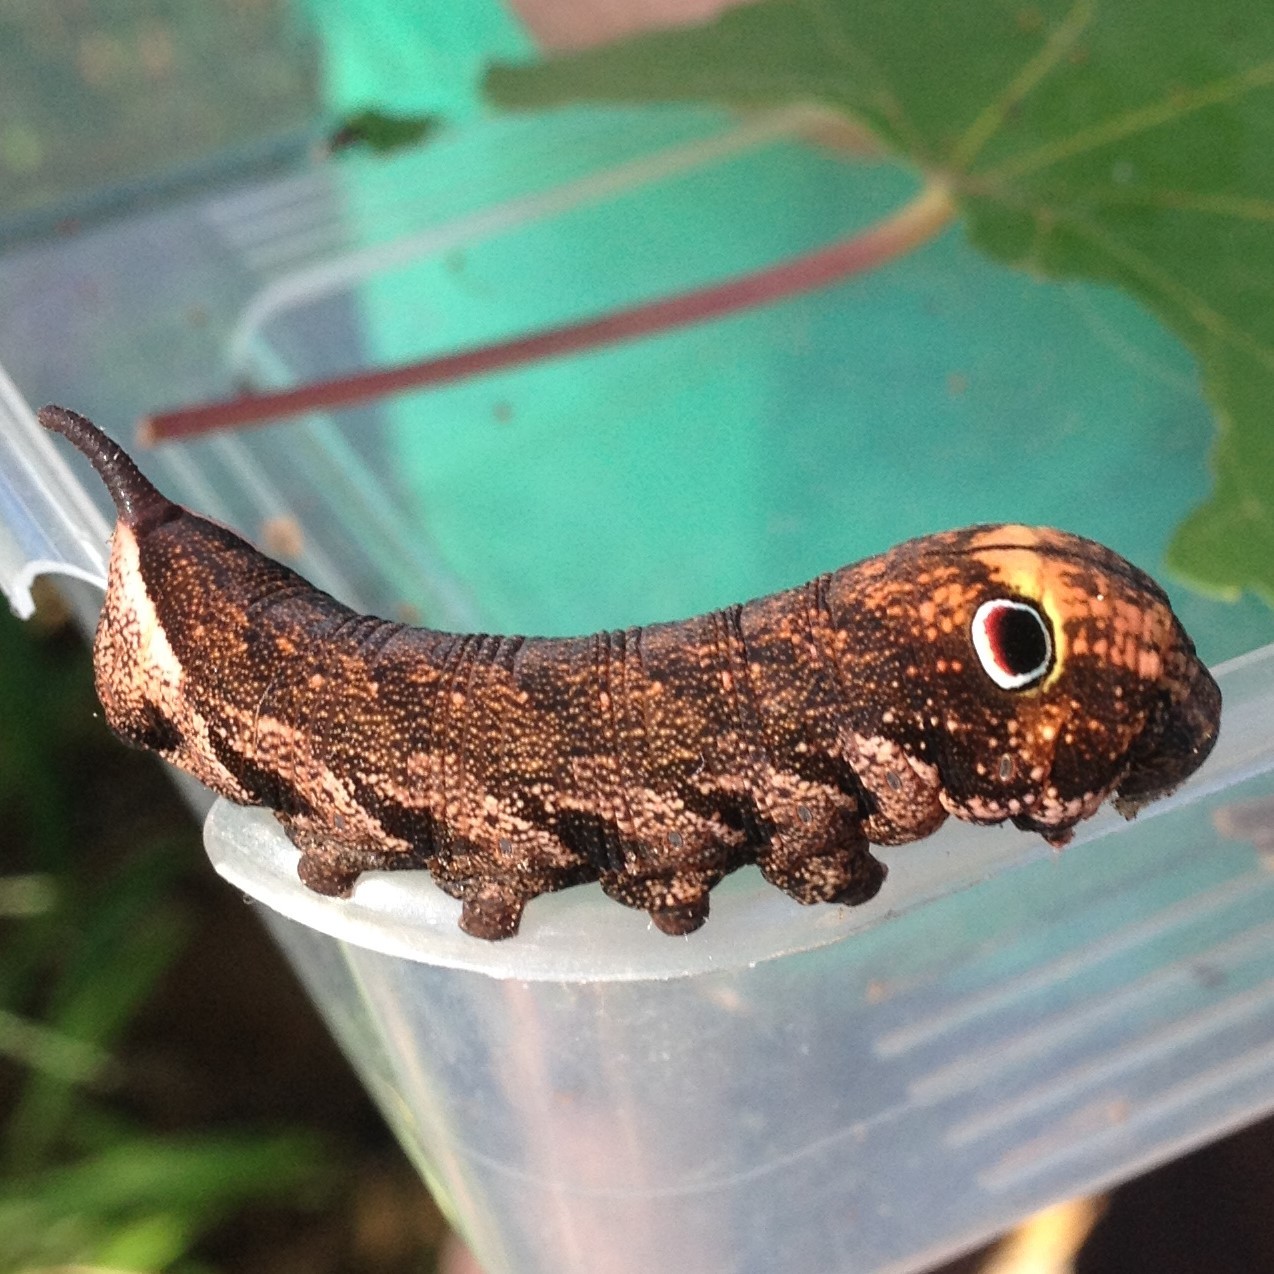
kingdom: Animalia
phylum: Arthropoda
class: Insecta
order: Lepidoptera
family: Sphingidae
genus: Theretra
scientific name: Theretra latreillii
